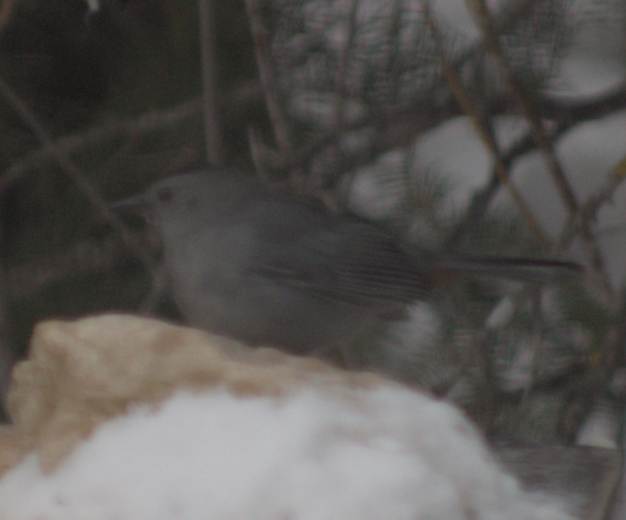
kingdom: Animalia
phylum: Chordata
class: Aves
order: Passeriformes
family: Mimidae
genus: Dumetella
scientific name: Dumetella carolinensis
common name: Gray catbird
